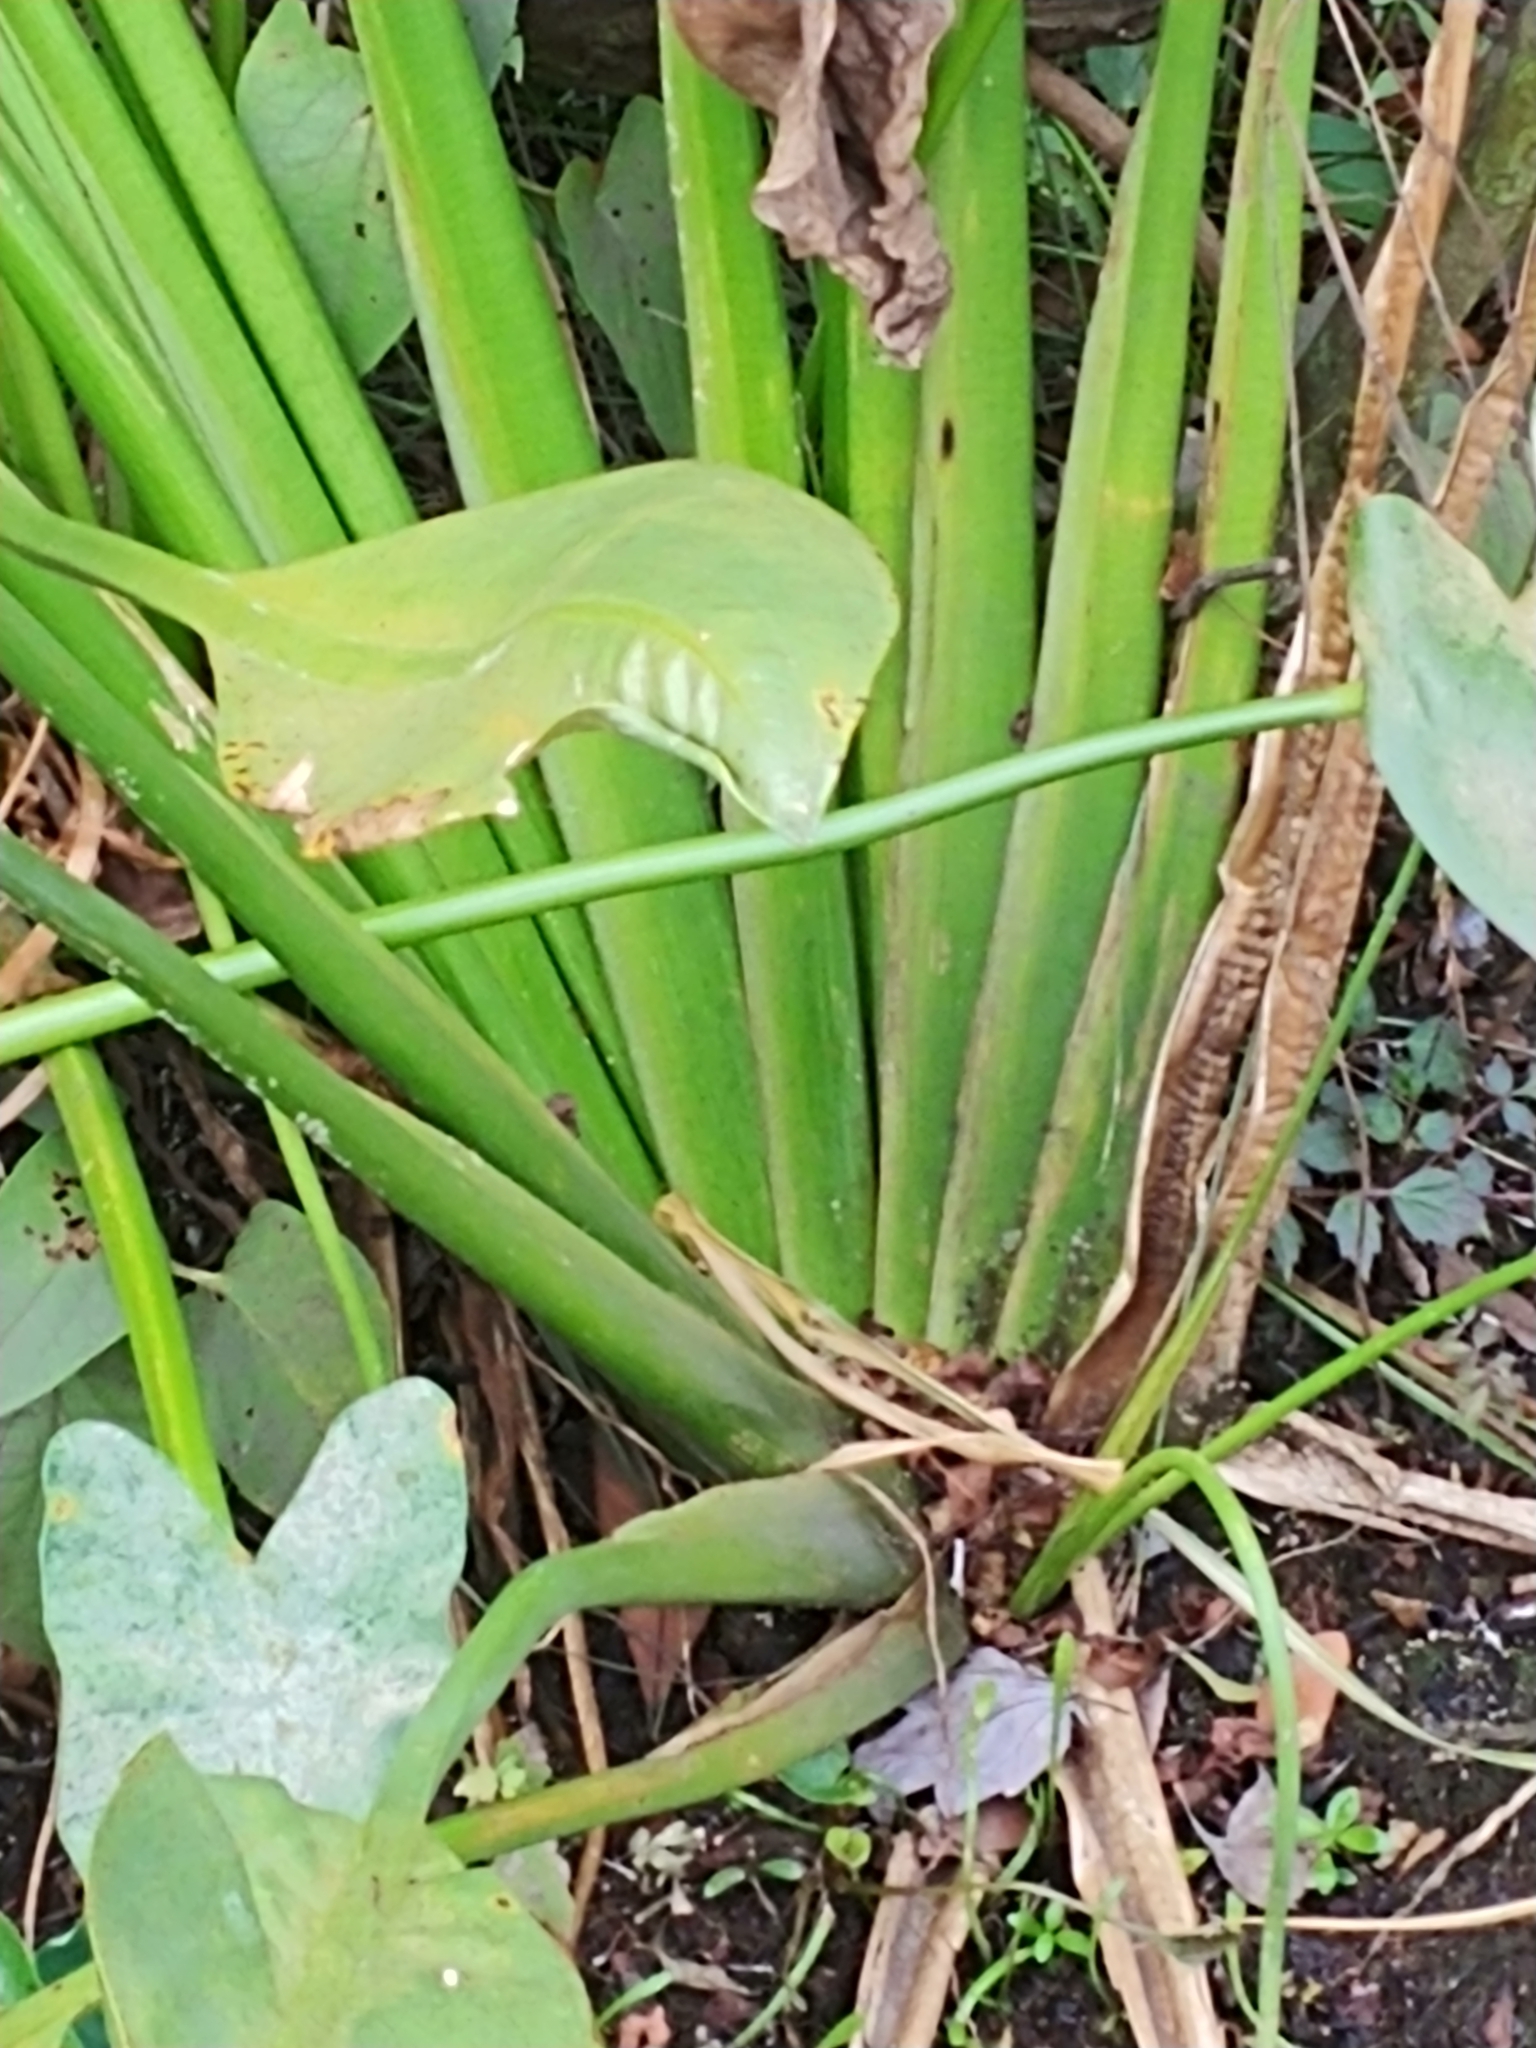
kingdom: Plantae
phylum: Tracheophyta
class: Liliopsida
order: Alismatales
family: Alismataceae
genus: Sagittaria
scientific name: Sagittaria lancifolia
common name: Lance-leaf arrowhead
